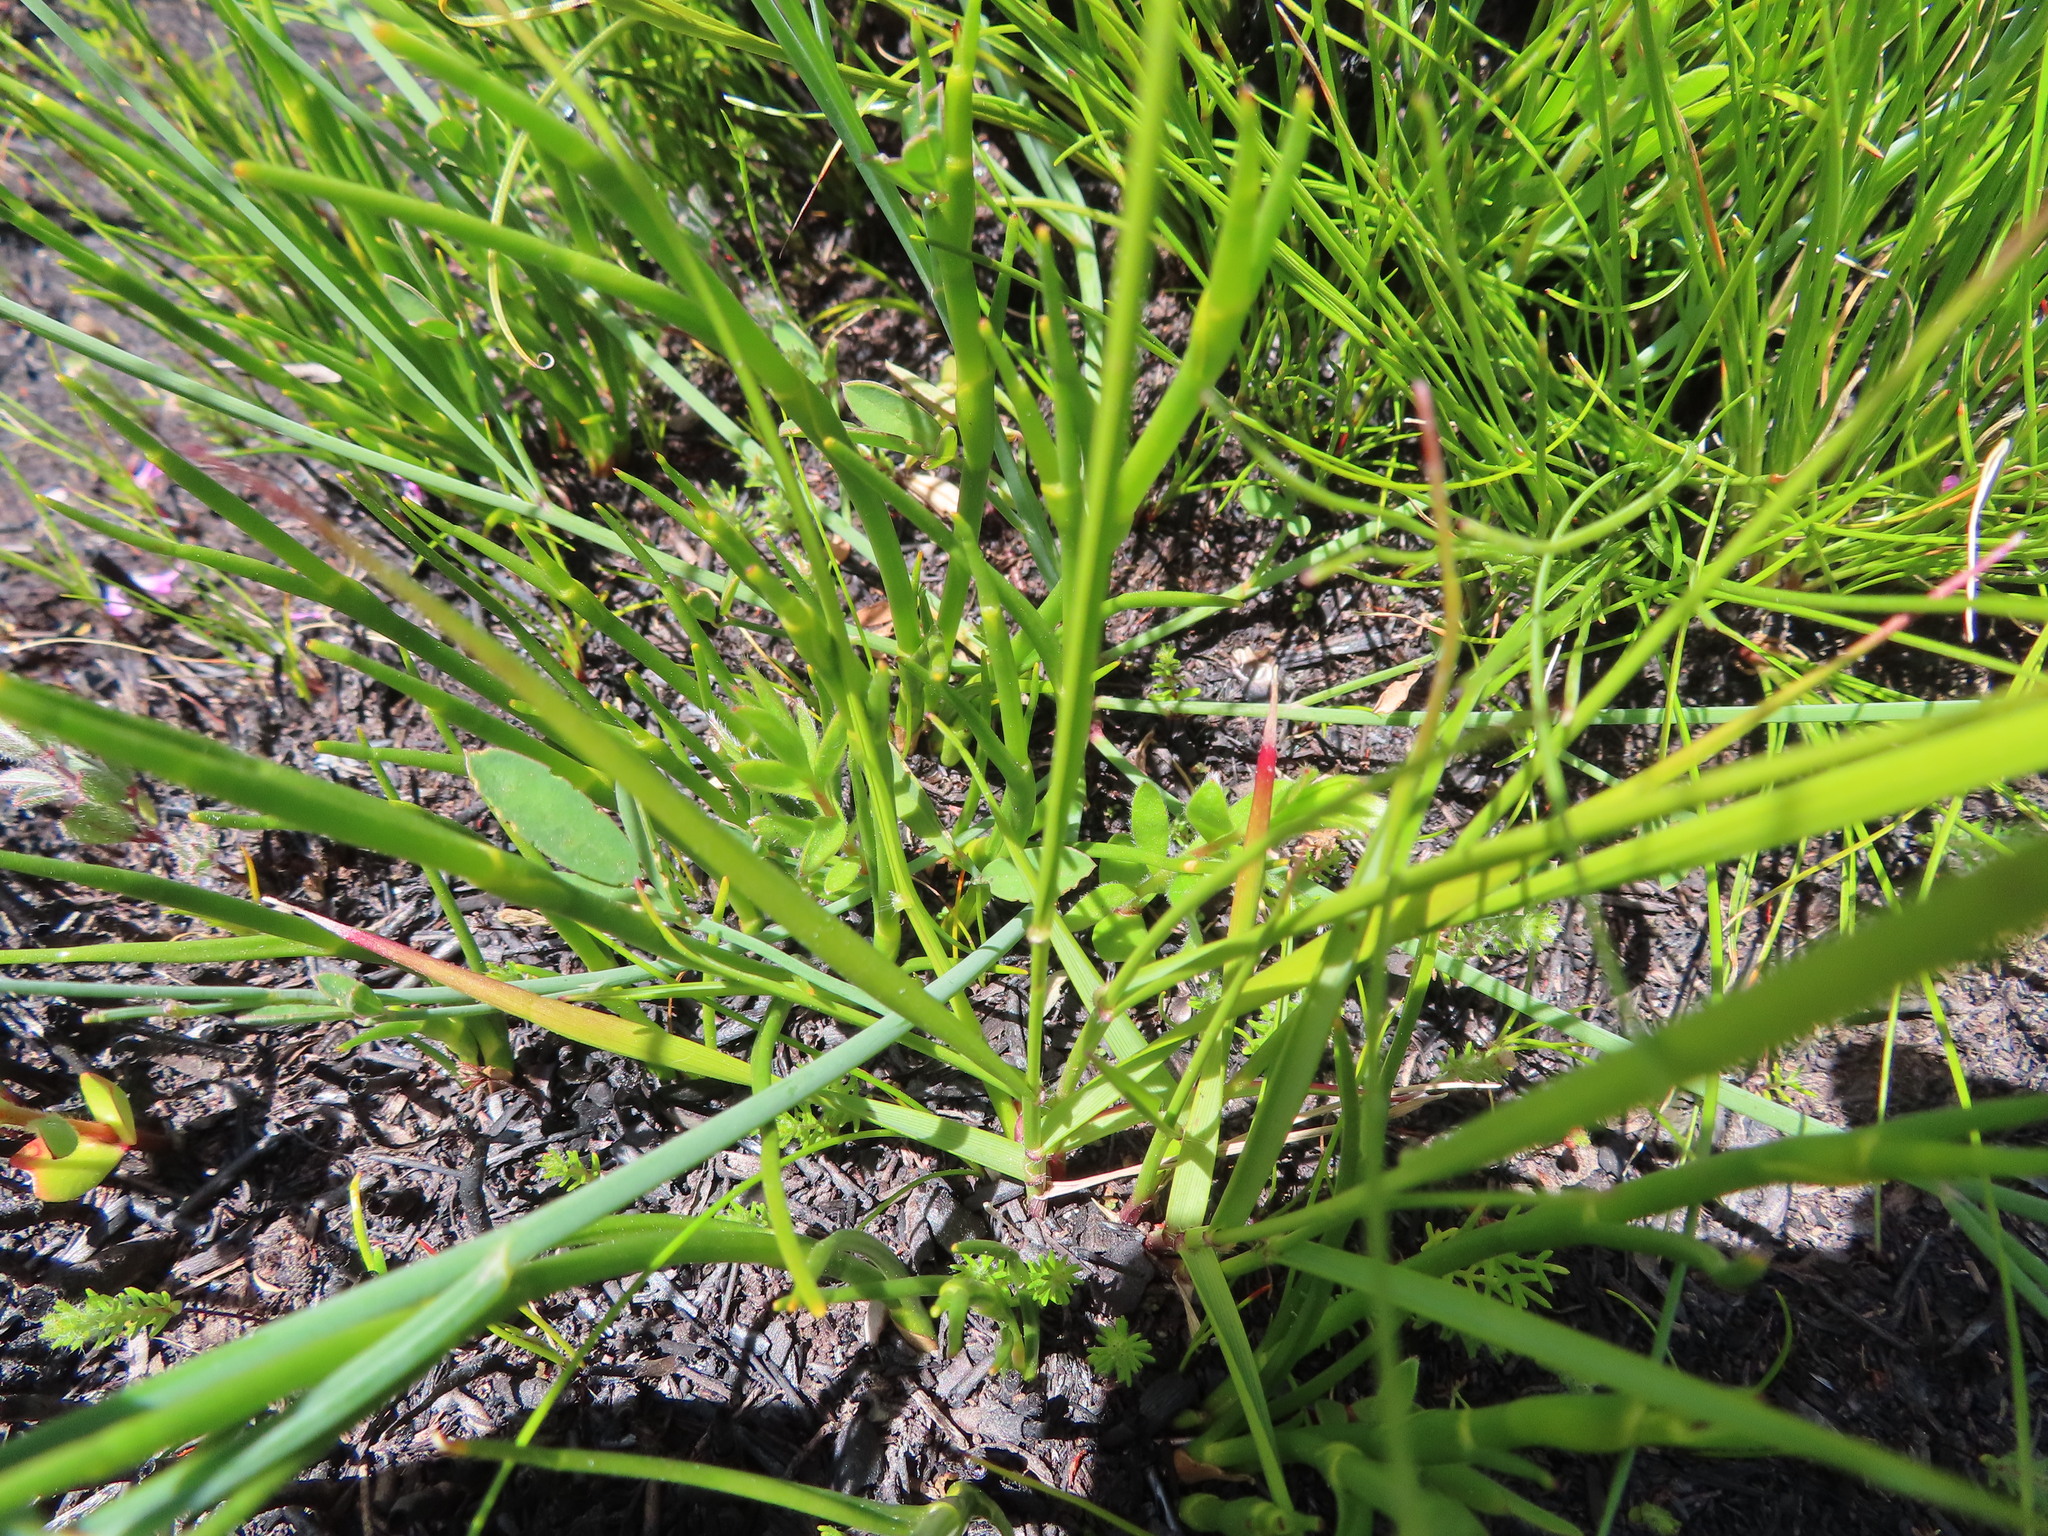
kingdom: Plantae
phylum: Tracheophyta
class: Liliopsida
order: Asparagales
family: Orchidaceae
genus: Disa
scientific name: Disa cylindrica
